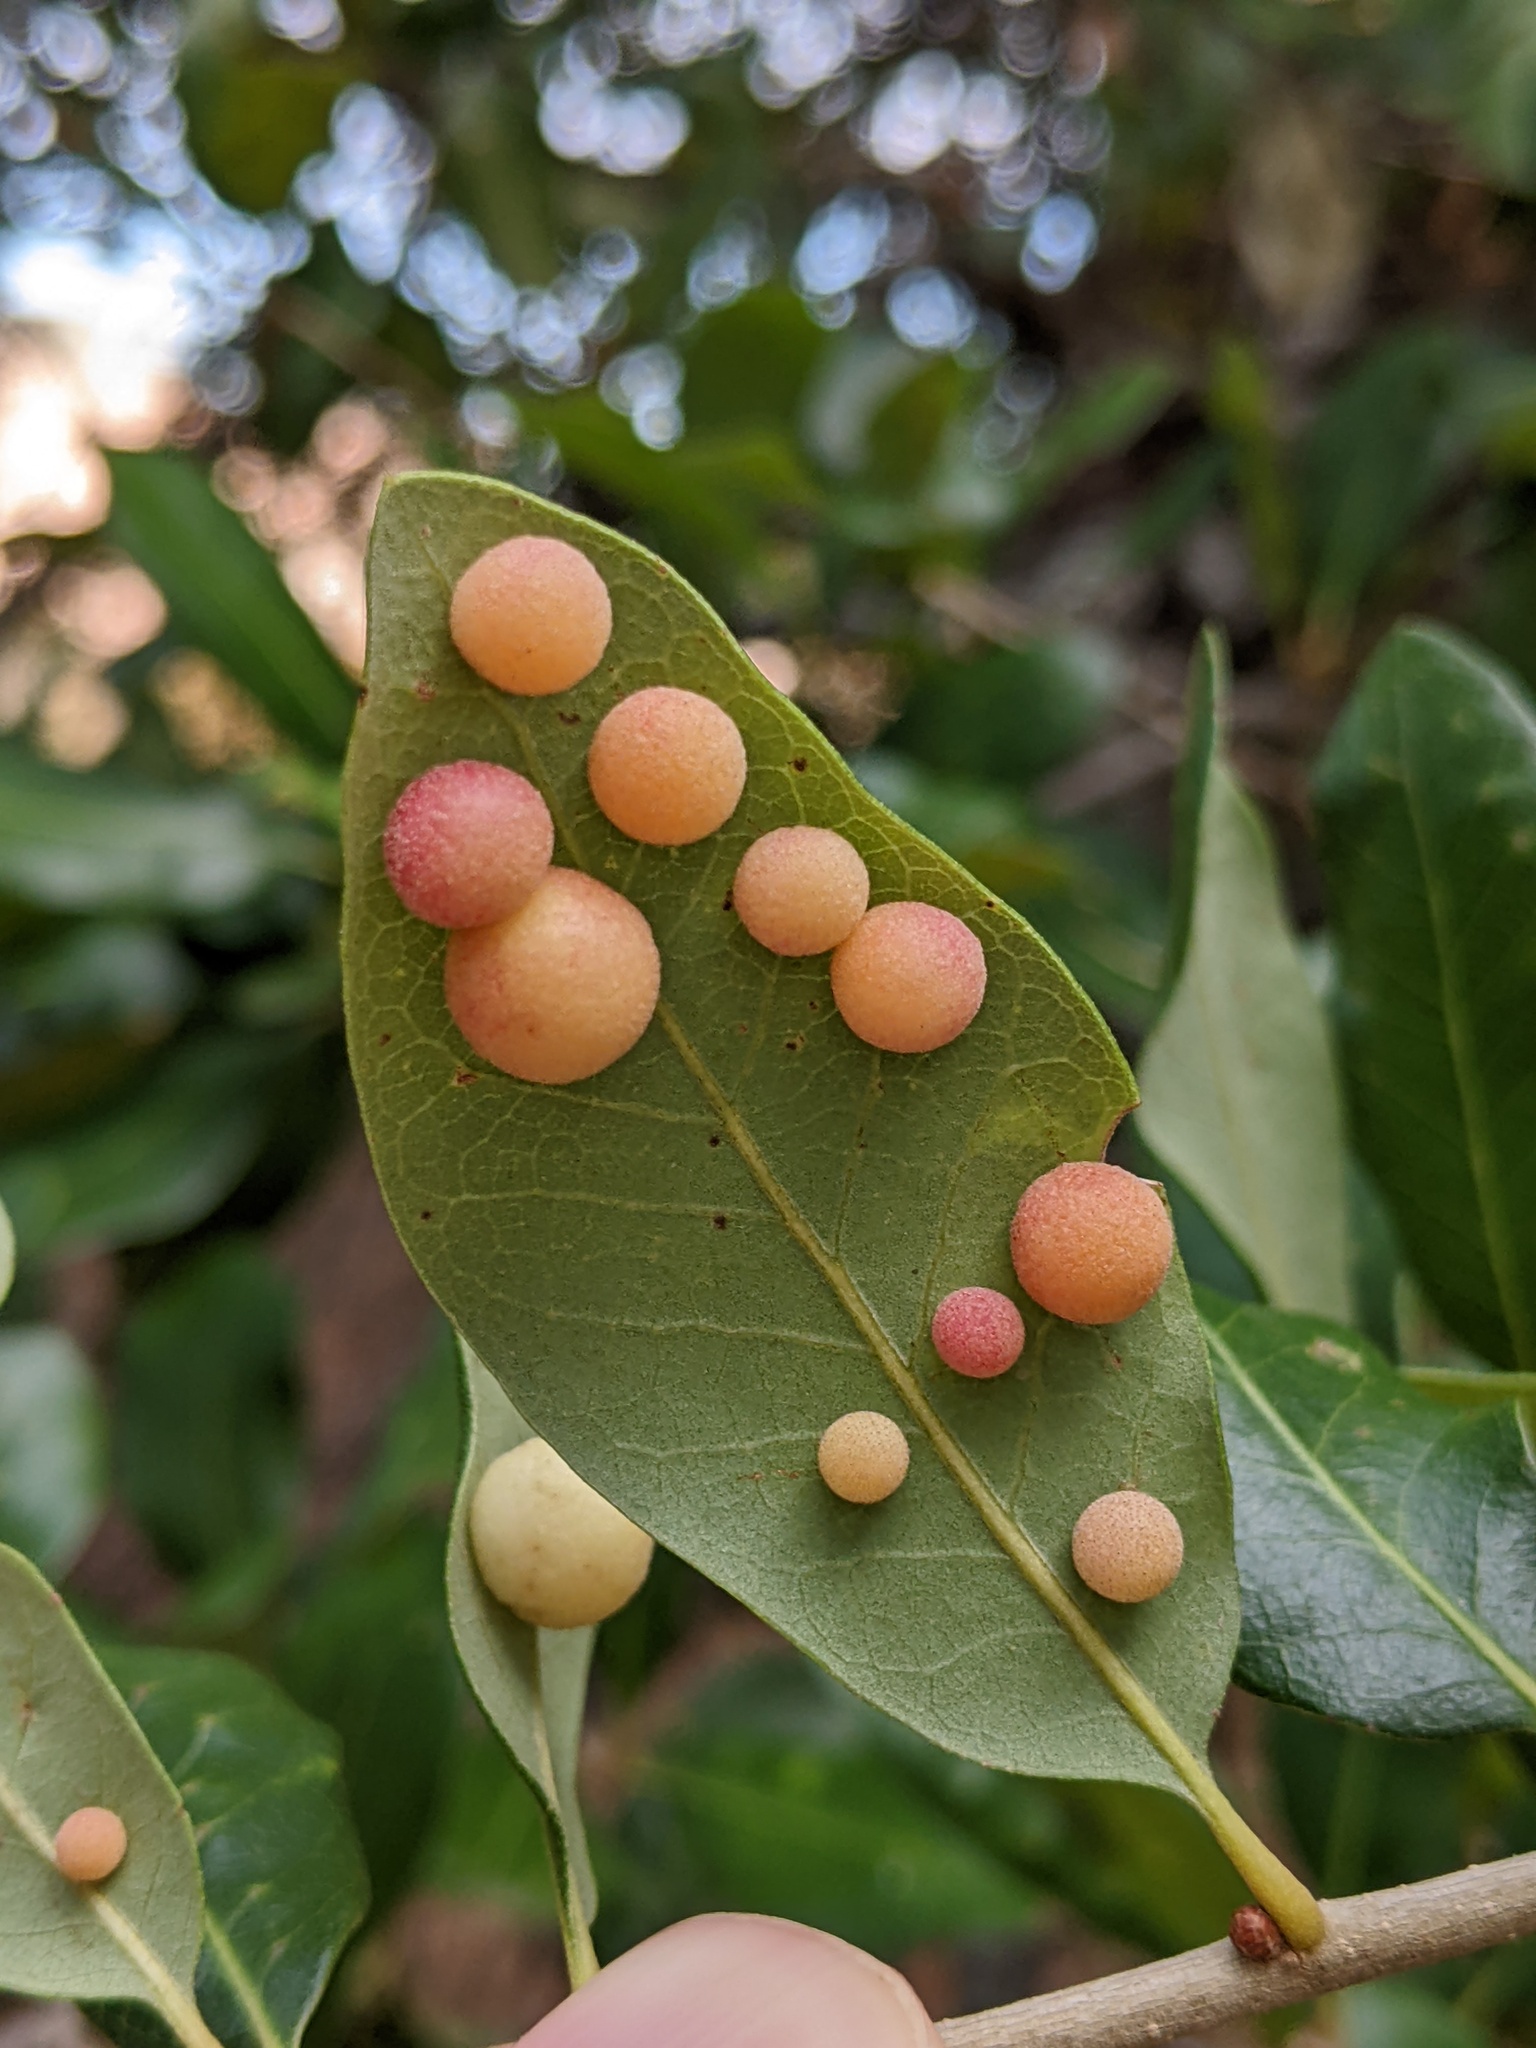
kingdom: Animalia
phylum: Arthropoda
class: Insecta
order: Hymenoptera
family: Cynipidae
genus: Belonocnema
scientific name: Belonocnema kinseyi
